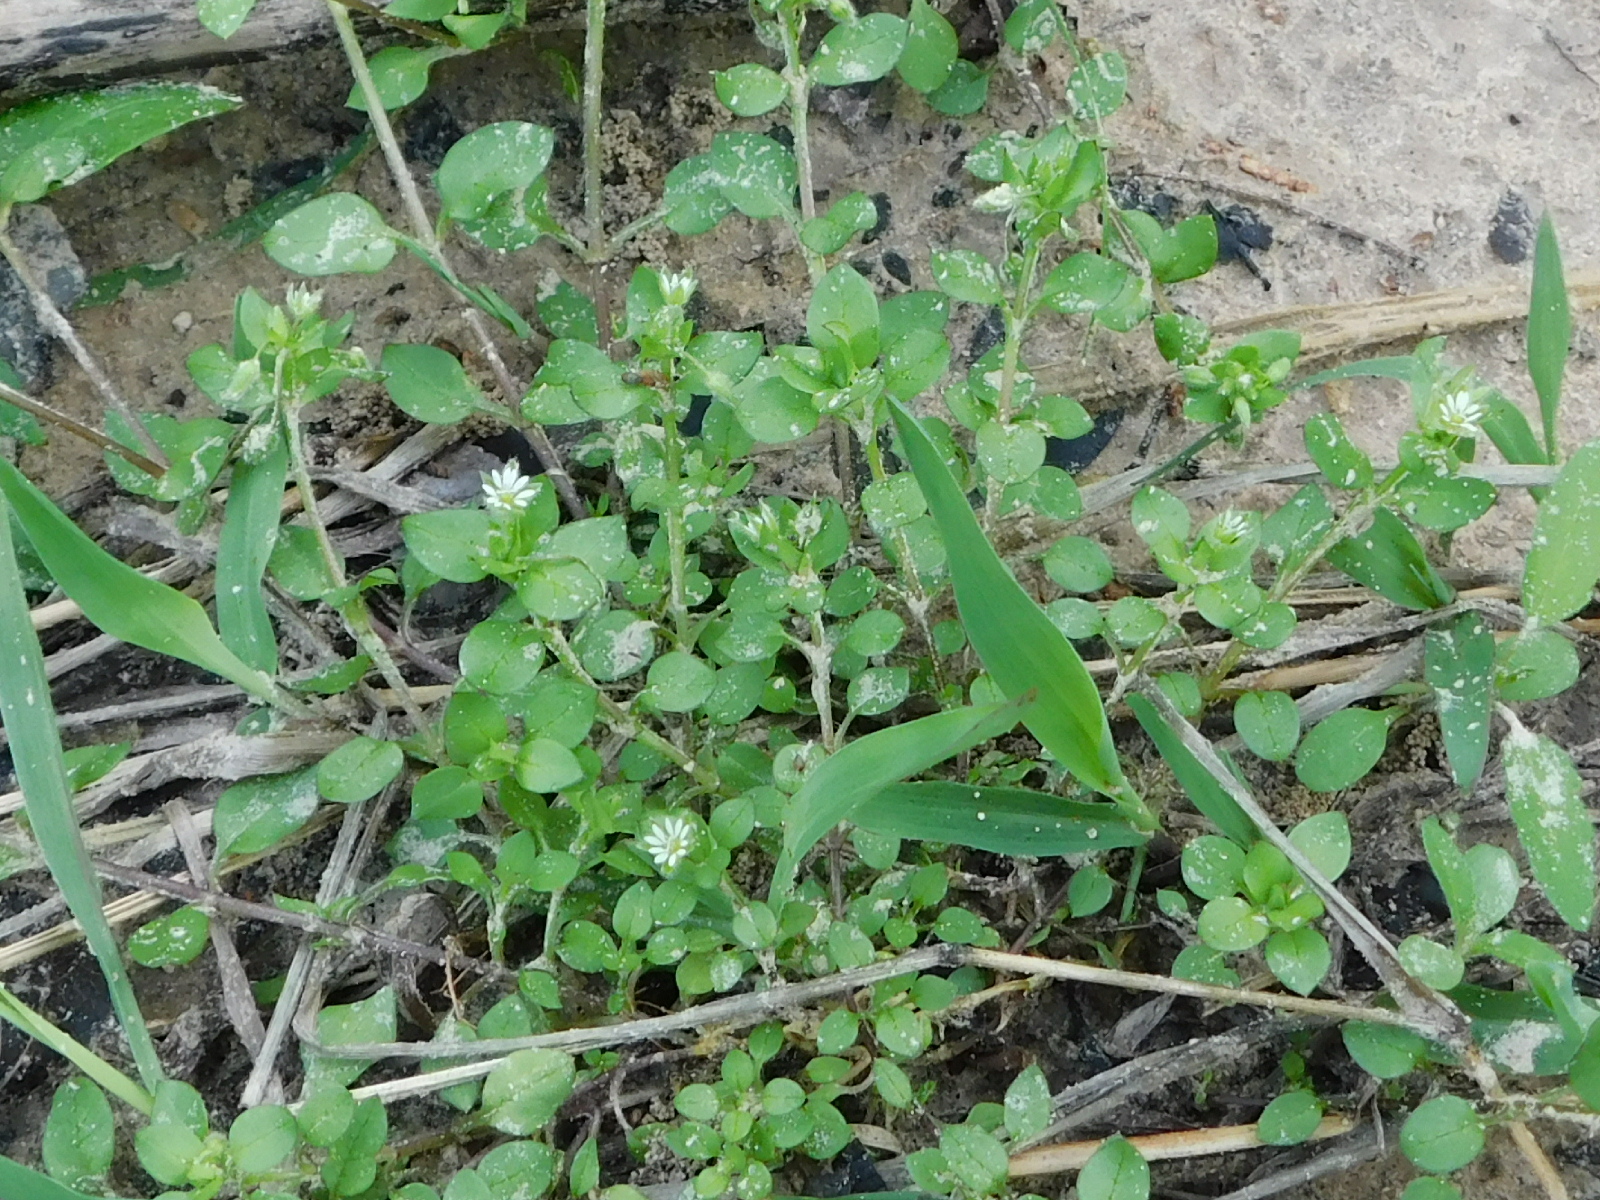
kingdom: Plantae
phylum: Tracheophyta
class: Magnoliopsida
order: Caryophyllales
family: Caryophyllaceae
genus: Stellaria
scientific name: Stellaria media
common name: Common chickweed
